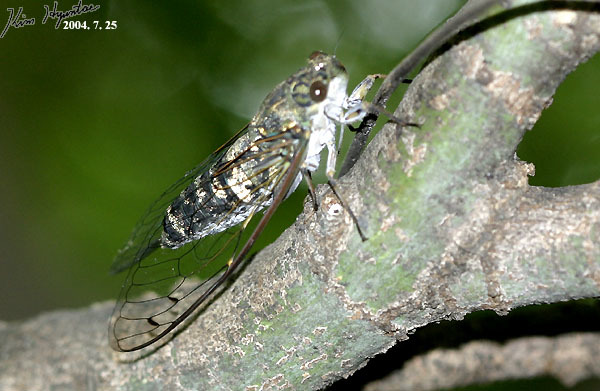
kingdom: Animalia
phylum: Arthropoda
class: Insecta
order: Hemiptera
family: Cicadidae
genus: Meimuna
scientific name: Meimuna opalifera
